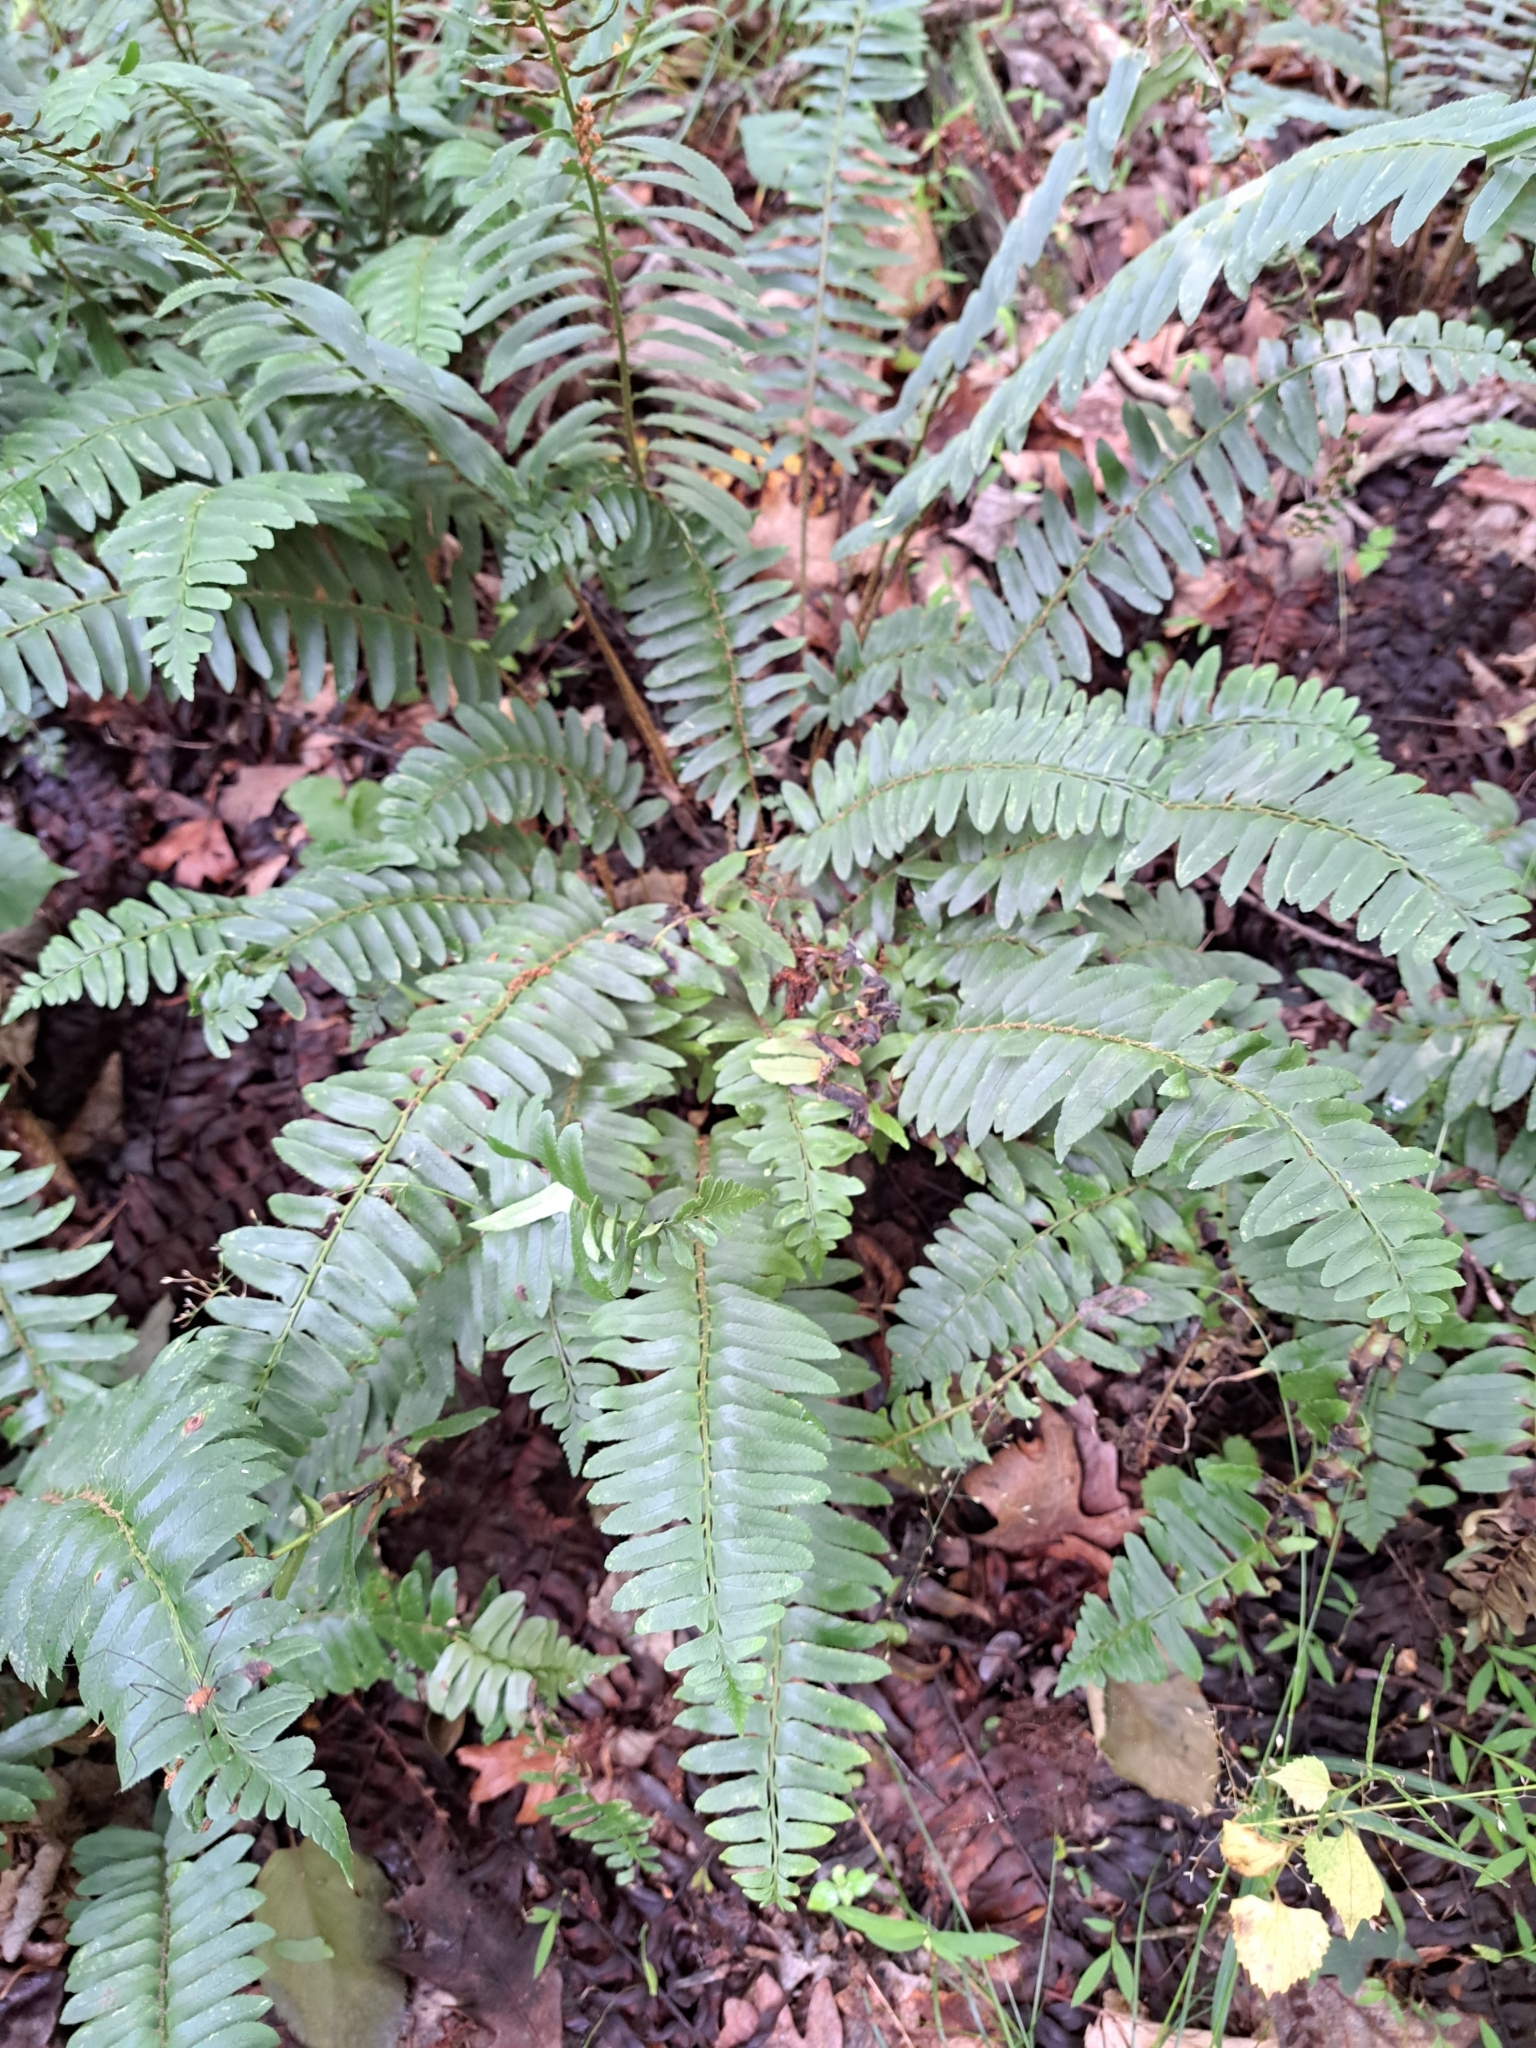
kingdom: Plantae
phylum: Tracheophyta
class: Polypodiopsida
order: Polypodiales
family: Dryopteridaceae
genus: Polystichum
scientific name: Polystichum acrostichoides
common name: Christmas fern
